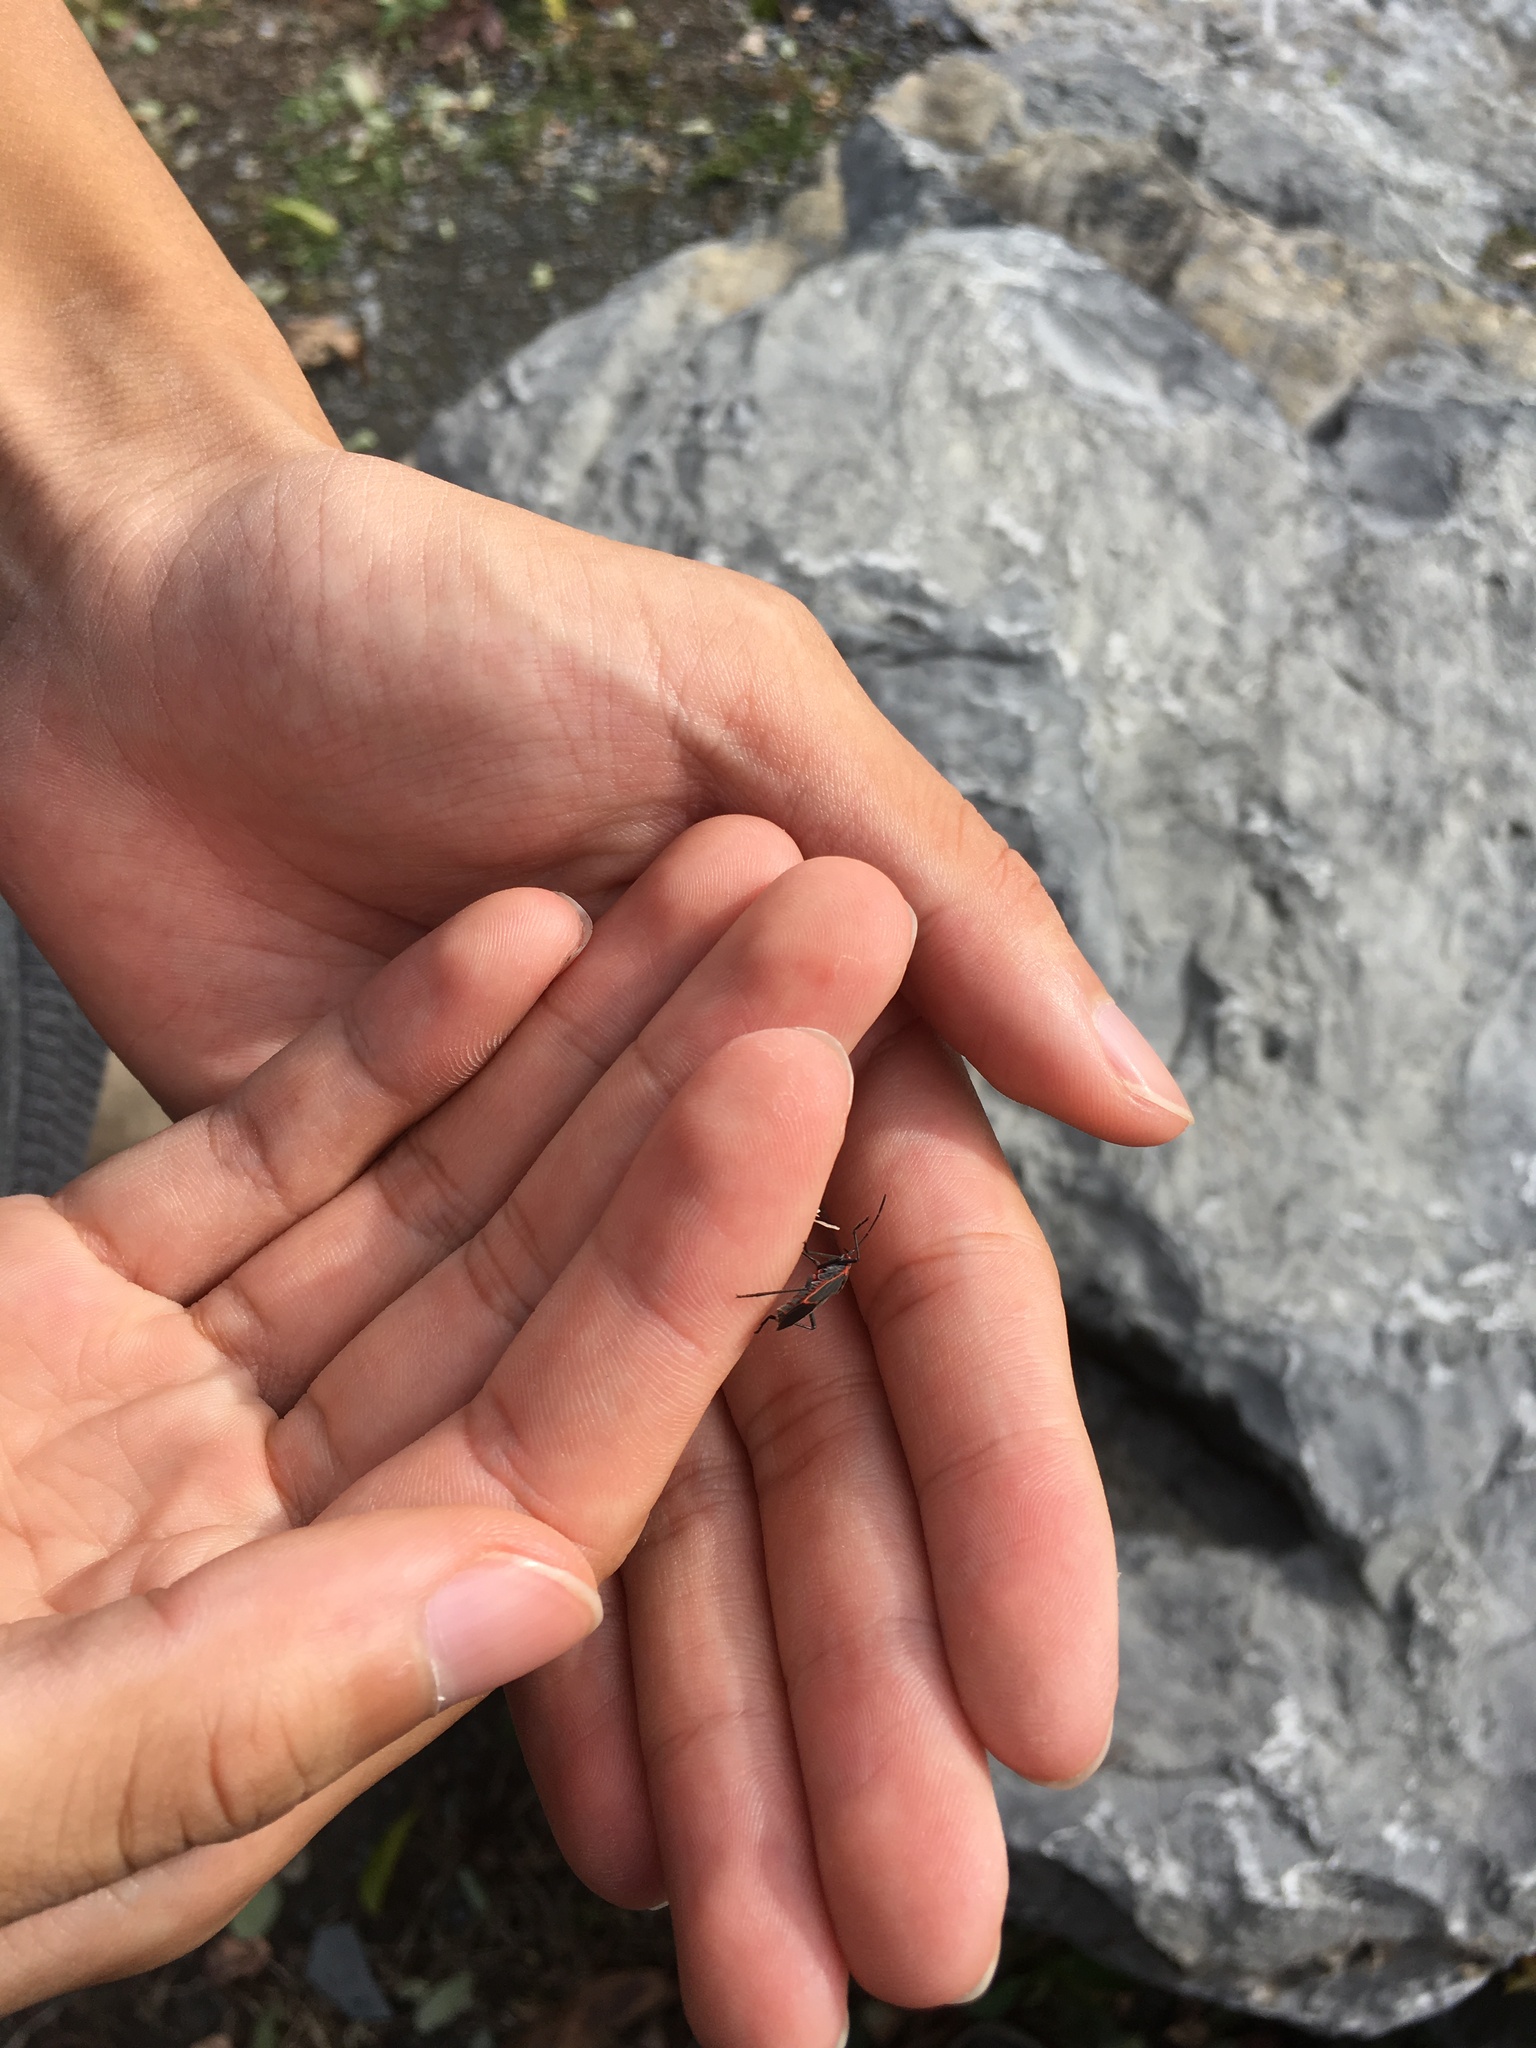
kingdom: Animalia
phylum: Arthropoda
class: Insecta
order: Hemiptera
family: Rhopalidae
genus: Boisea
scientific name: Boisea trivittata
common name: Boxelder bug
